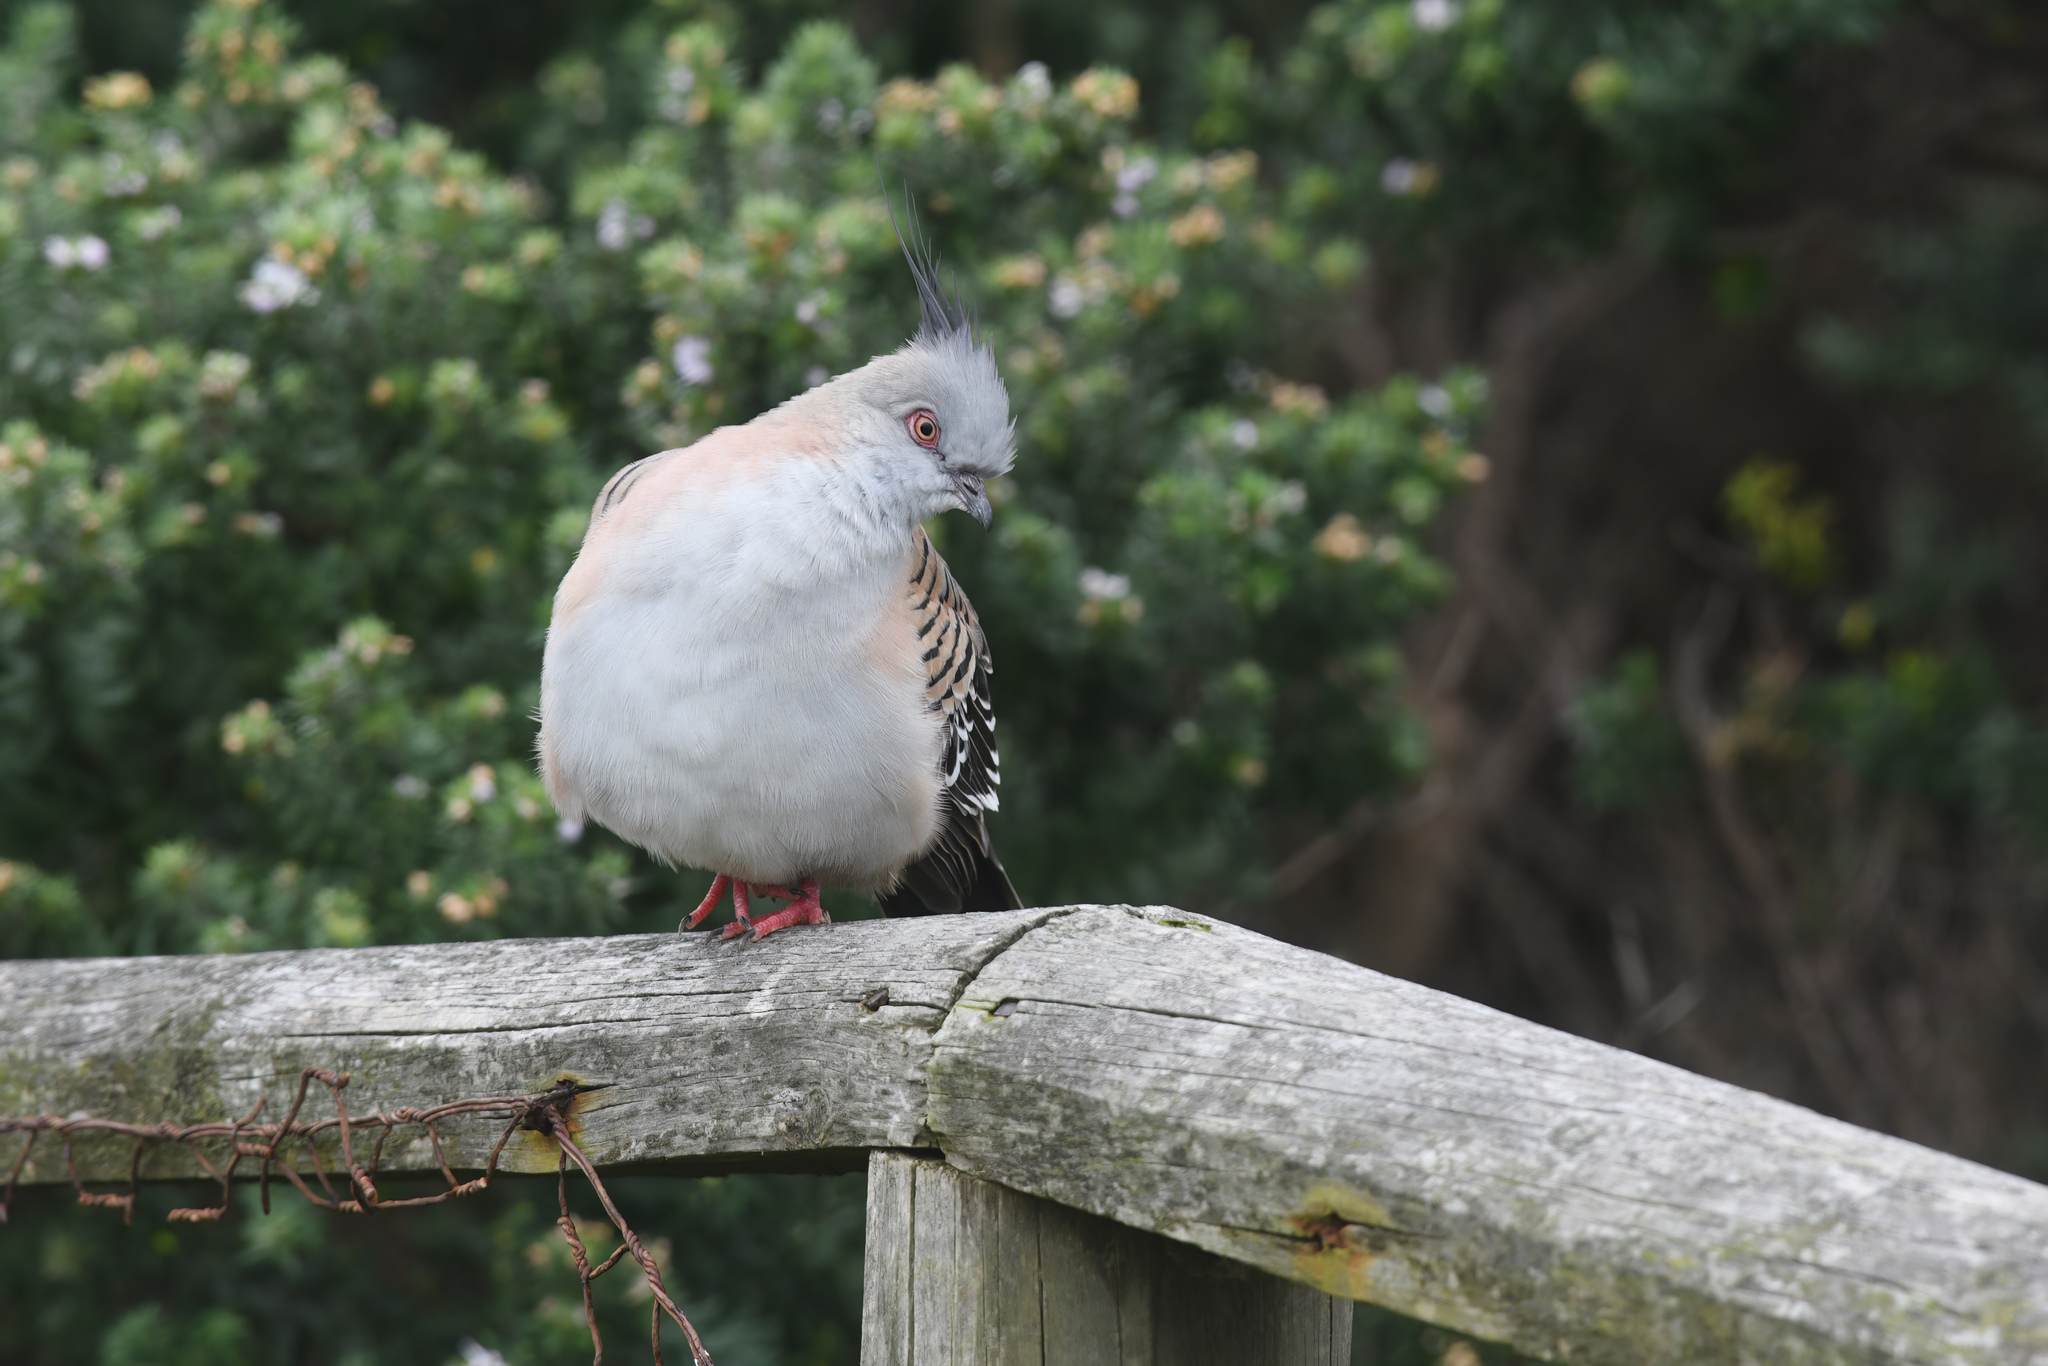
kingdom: Animalia
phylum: Chordata
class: Aves
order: Columbiformes
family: Columbidae
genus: Ocyphaps
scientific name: Ocyphaps lophotes
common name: Crested pigeon
